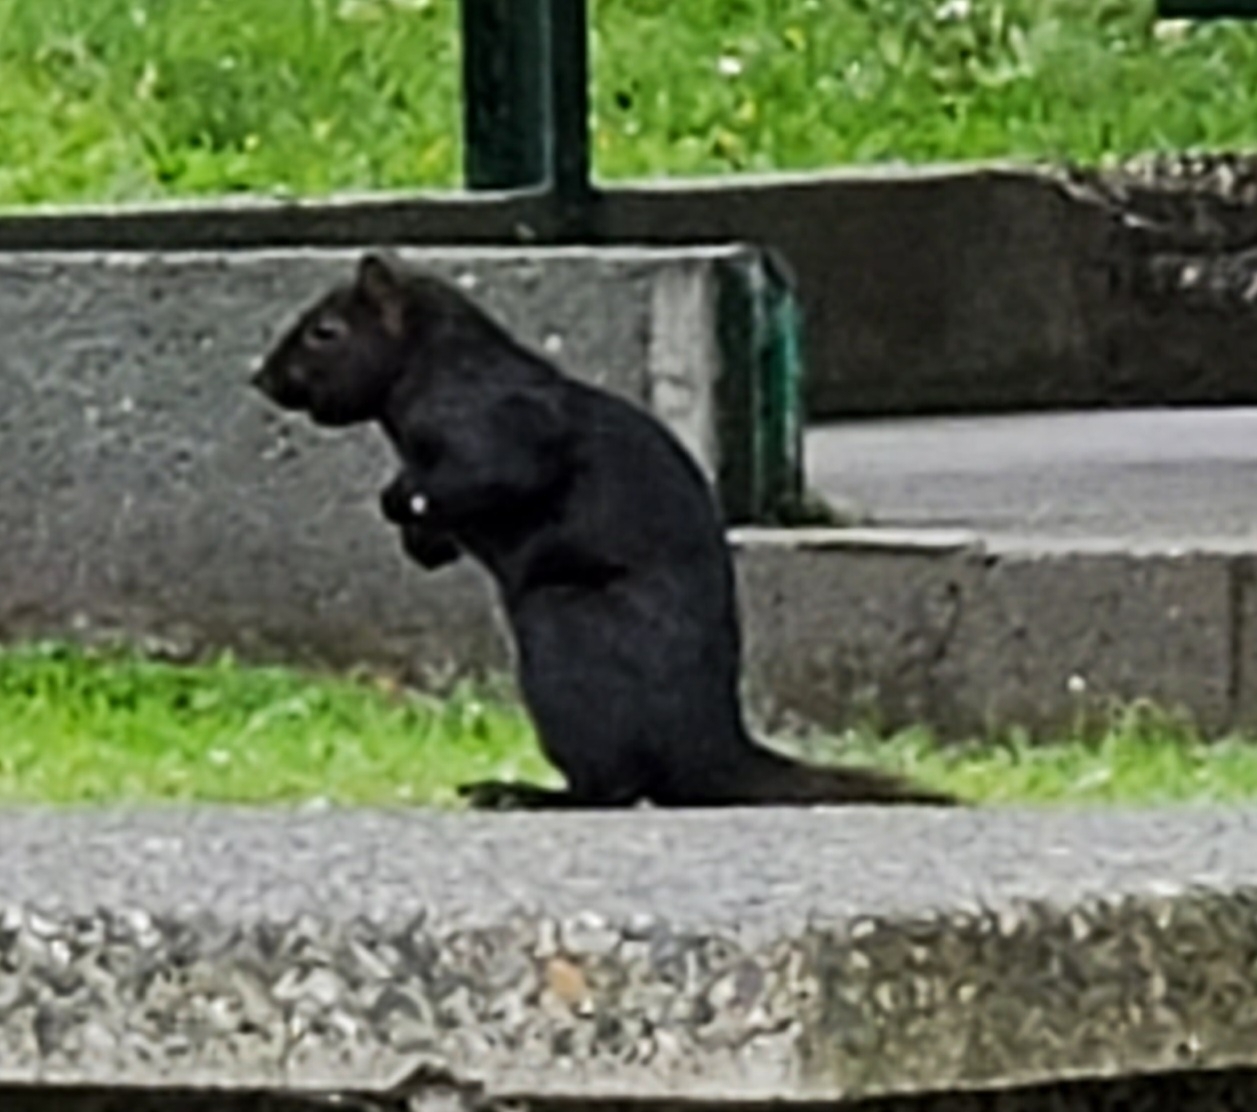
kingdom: Animalia
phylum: Chordata
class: Mammalia
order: Rodentia
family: Sciuridae
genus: Sciurus
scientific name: Sciurus carolinensis
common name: Eastern gray squirrel
